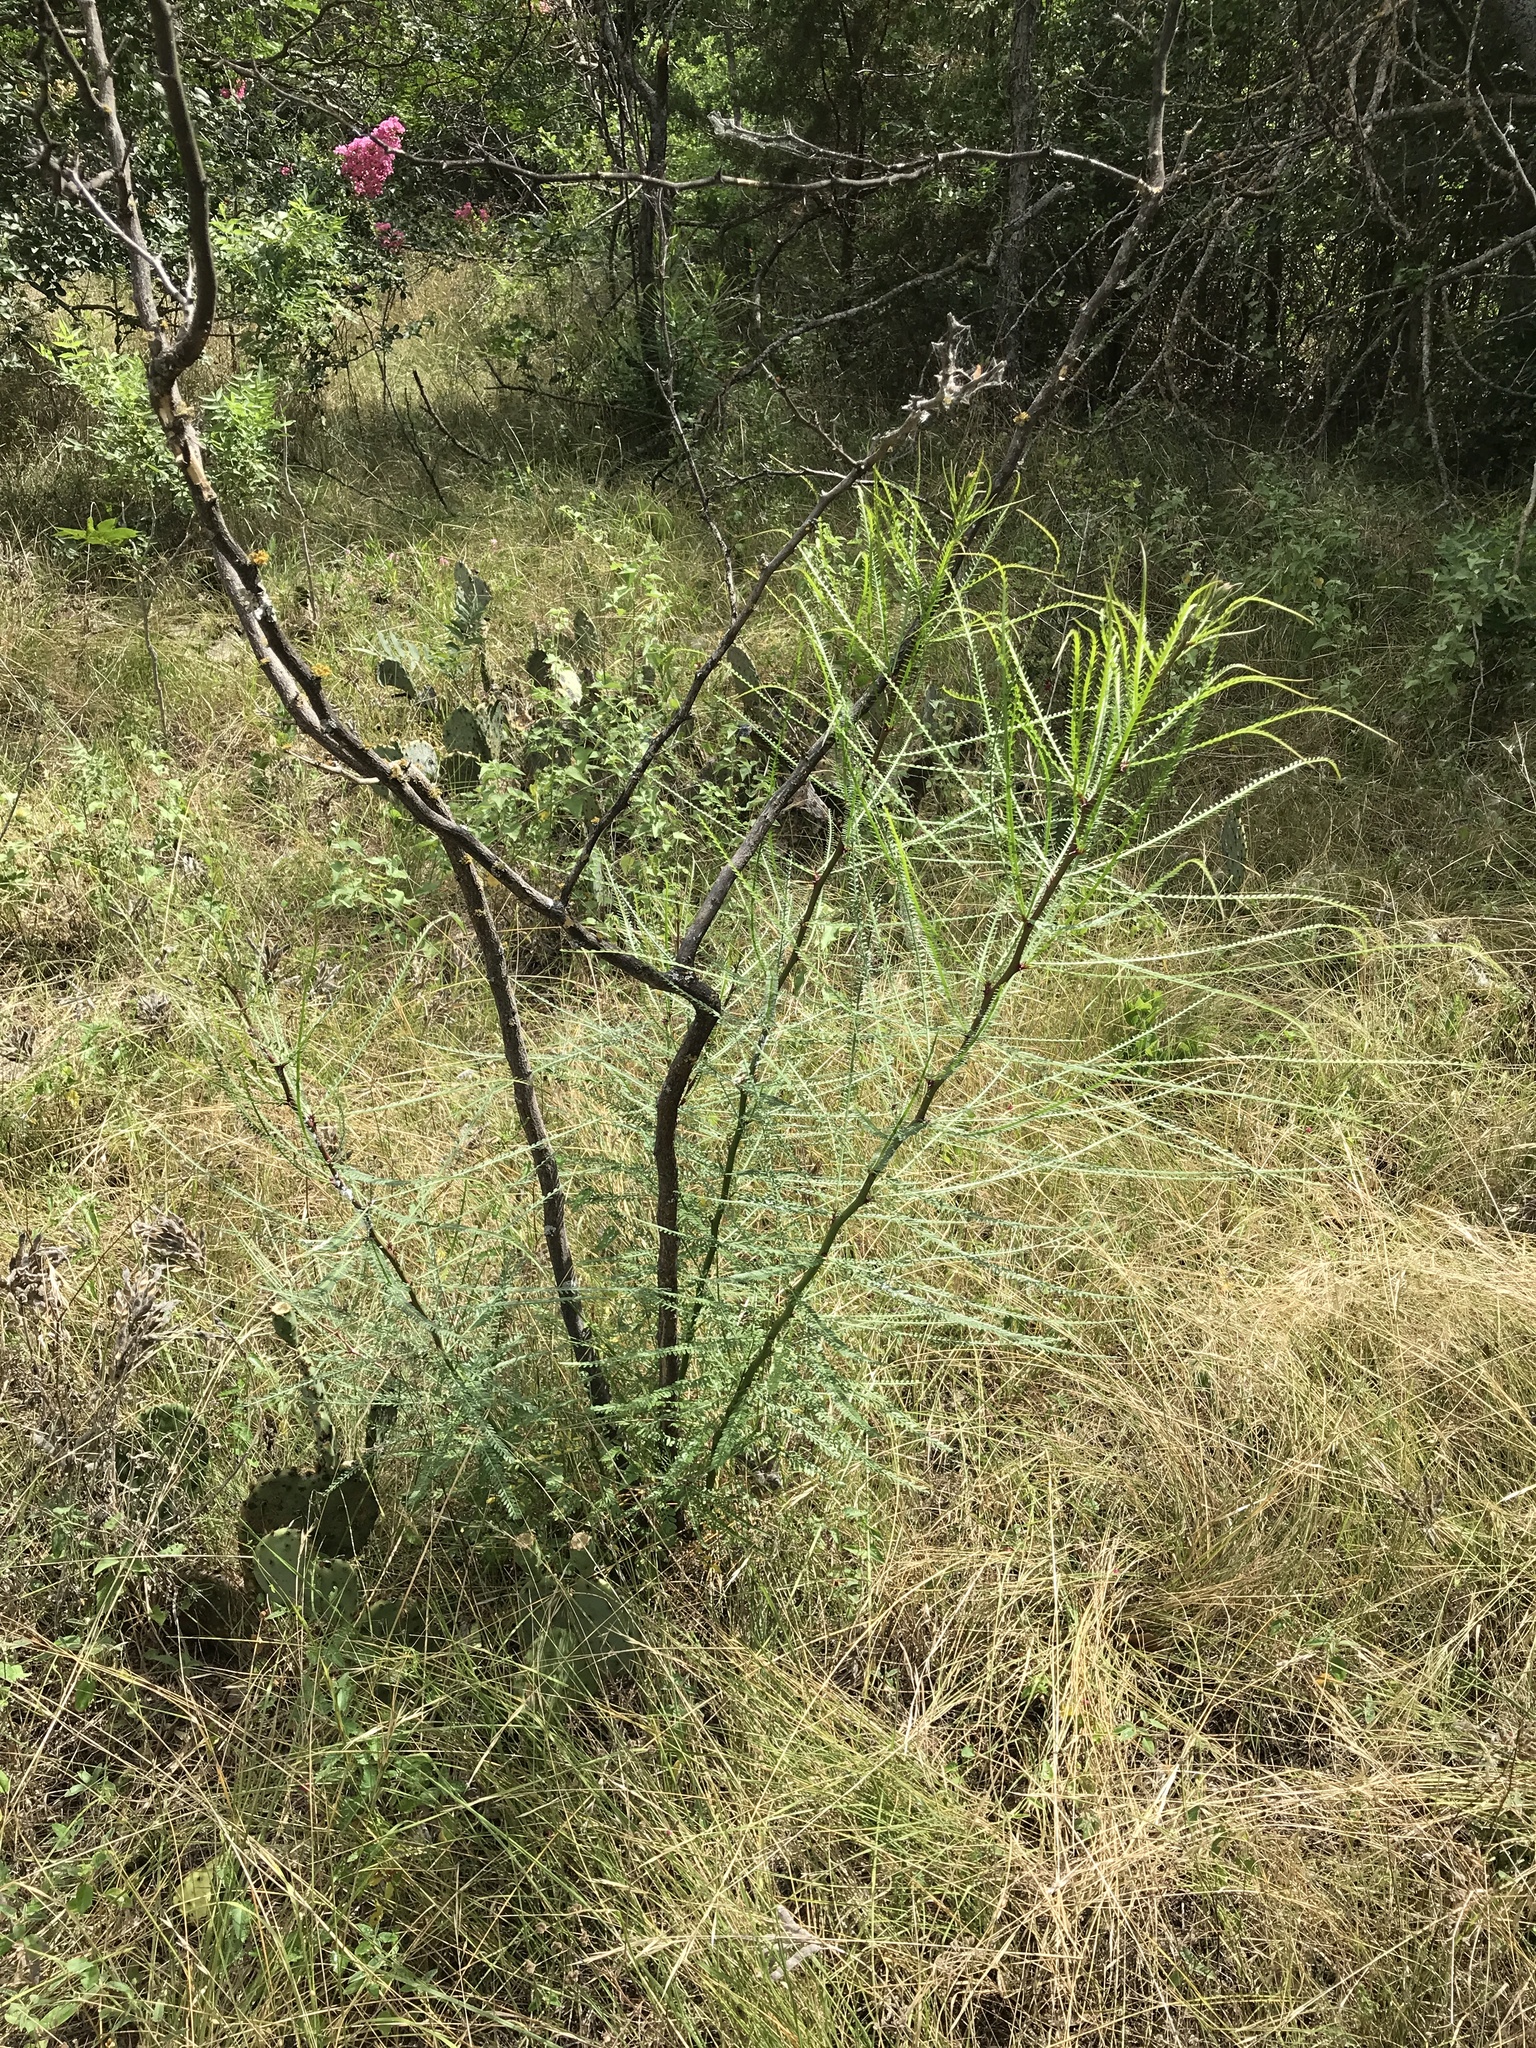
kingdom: Plantae
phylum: Tracheophyta
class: Magnoliopsida
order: Fabales
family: Fabaceae
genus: Parkinsonia
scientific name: Parkinsonia aculeata
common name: Jerusalem thorn
